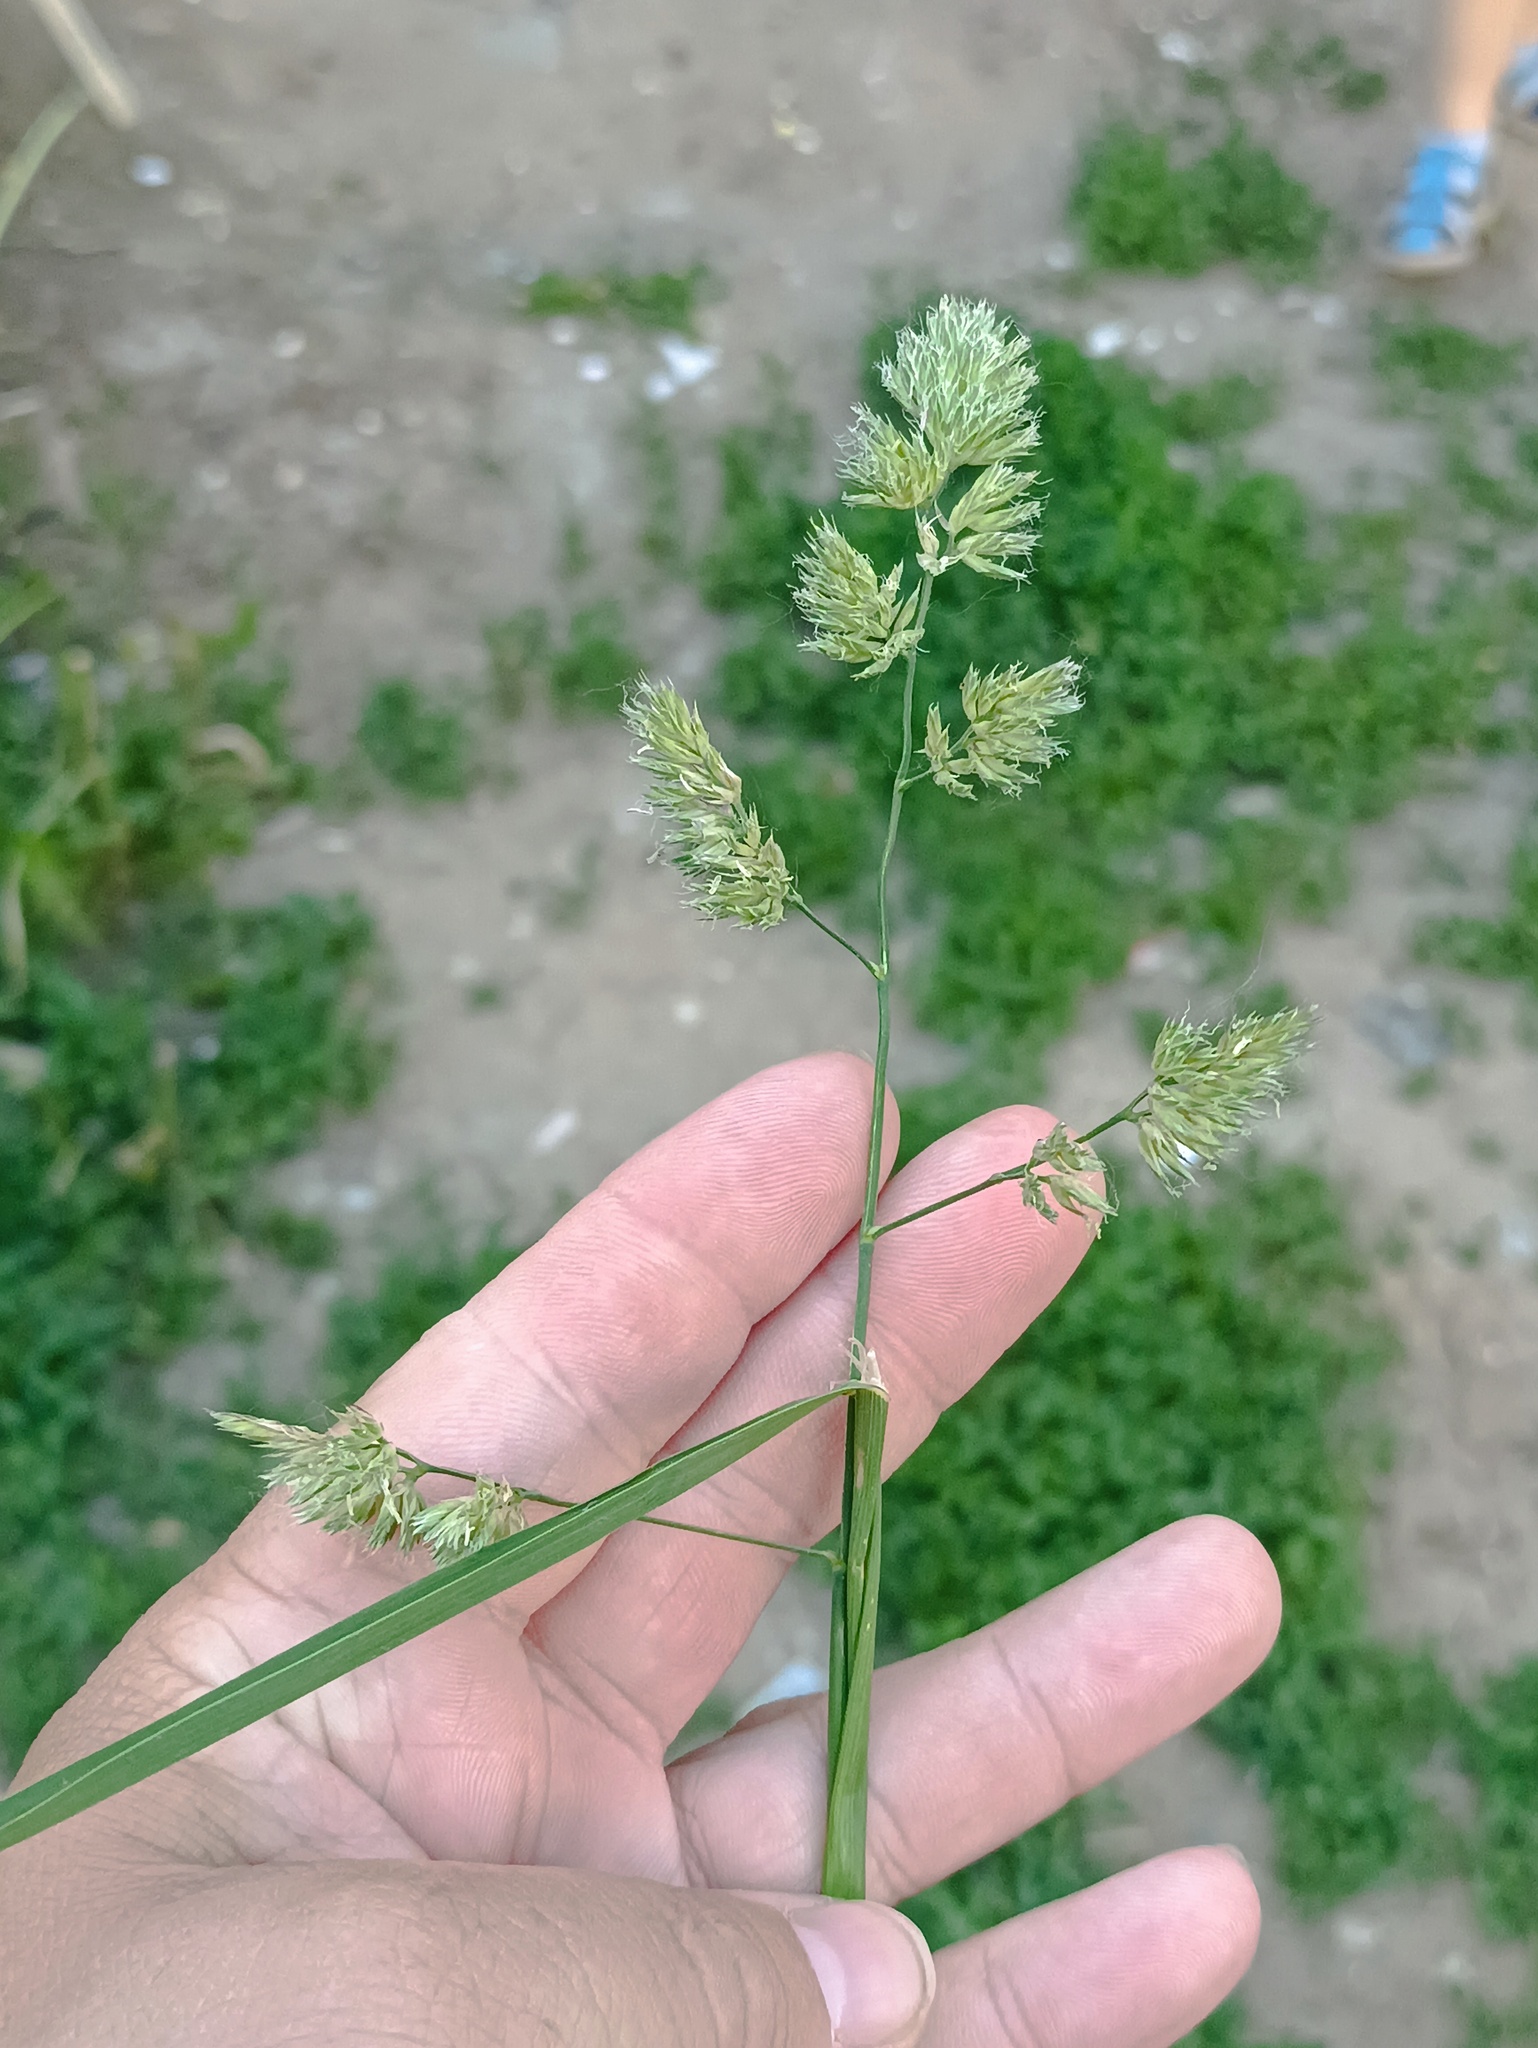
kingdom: Plantae
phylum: Tracheophyta
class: Liliopsida
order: Poales
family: Poaceae
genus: Dactylis
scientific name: Dactylis glomerata
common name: Orchardgrass
